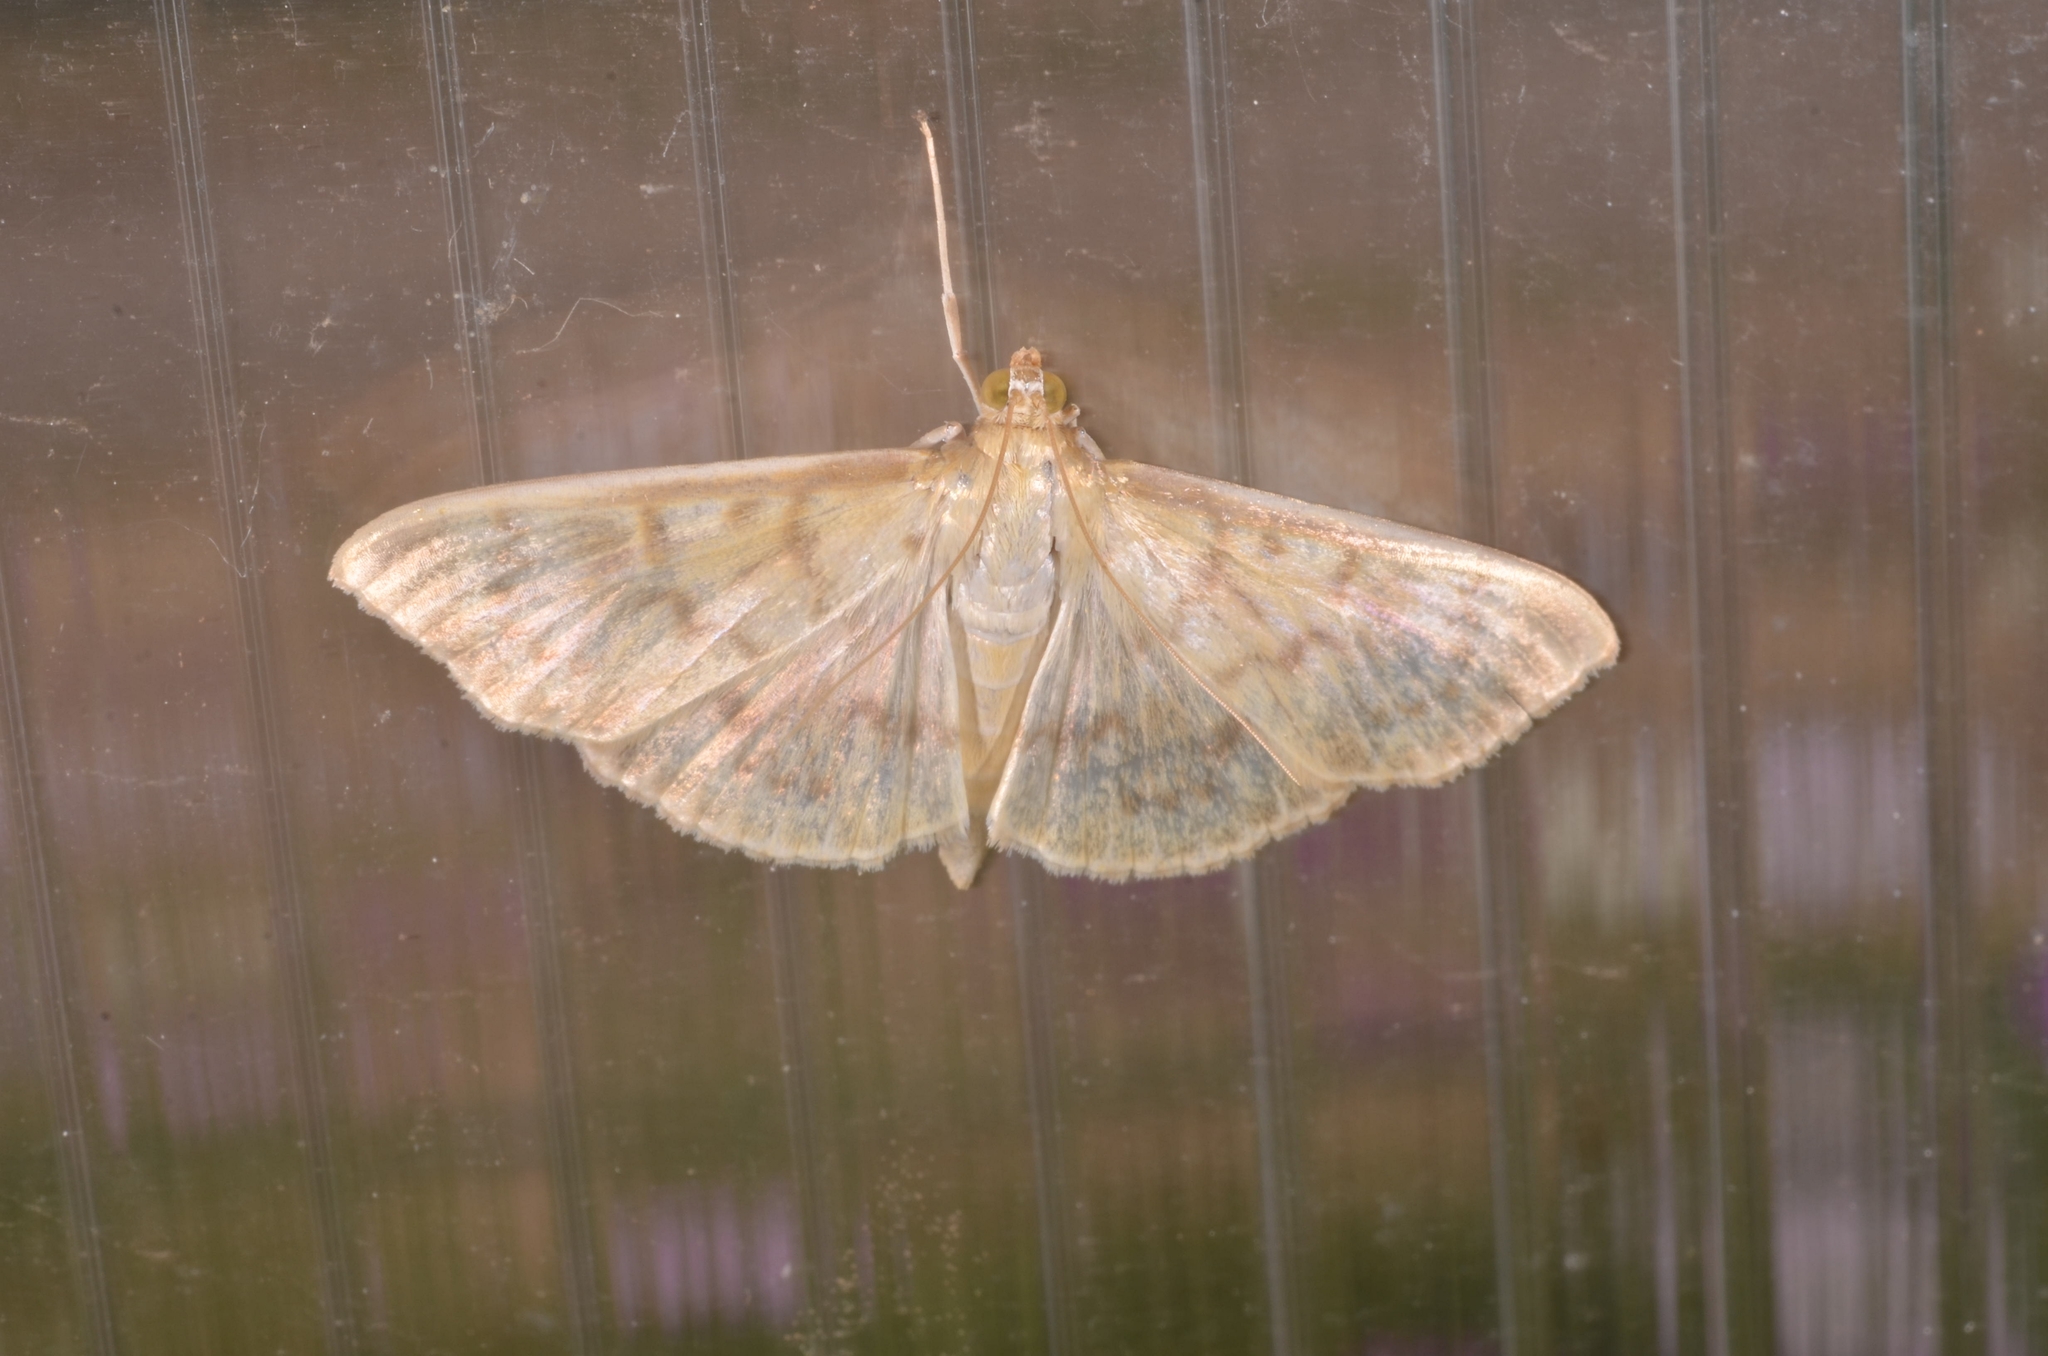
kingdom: Animalia
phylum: Arthropoda
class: Insecta
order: Lepidoptera
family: Crambidae
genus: Patania
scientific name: Patania ruralis
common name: Mother of pearl
